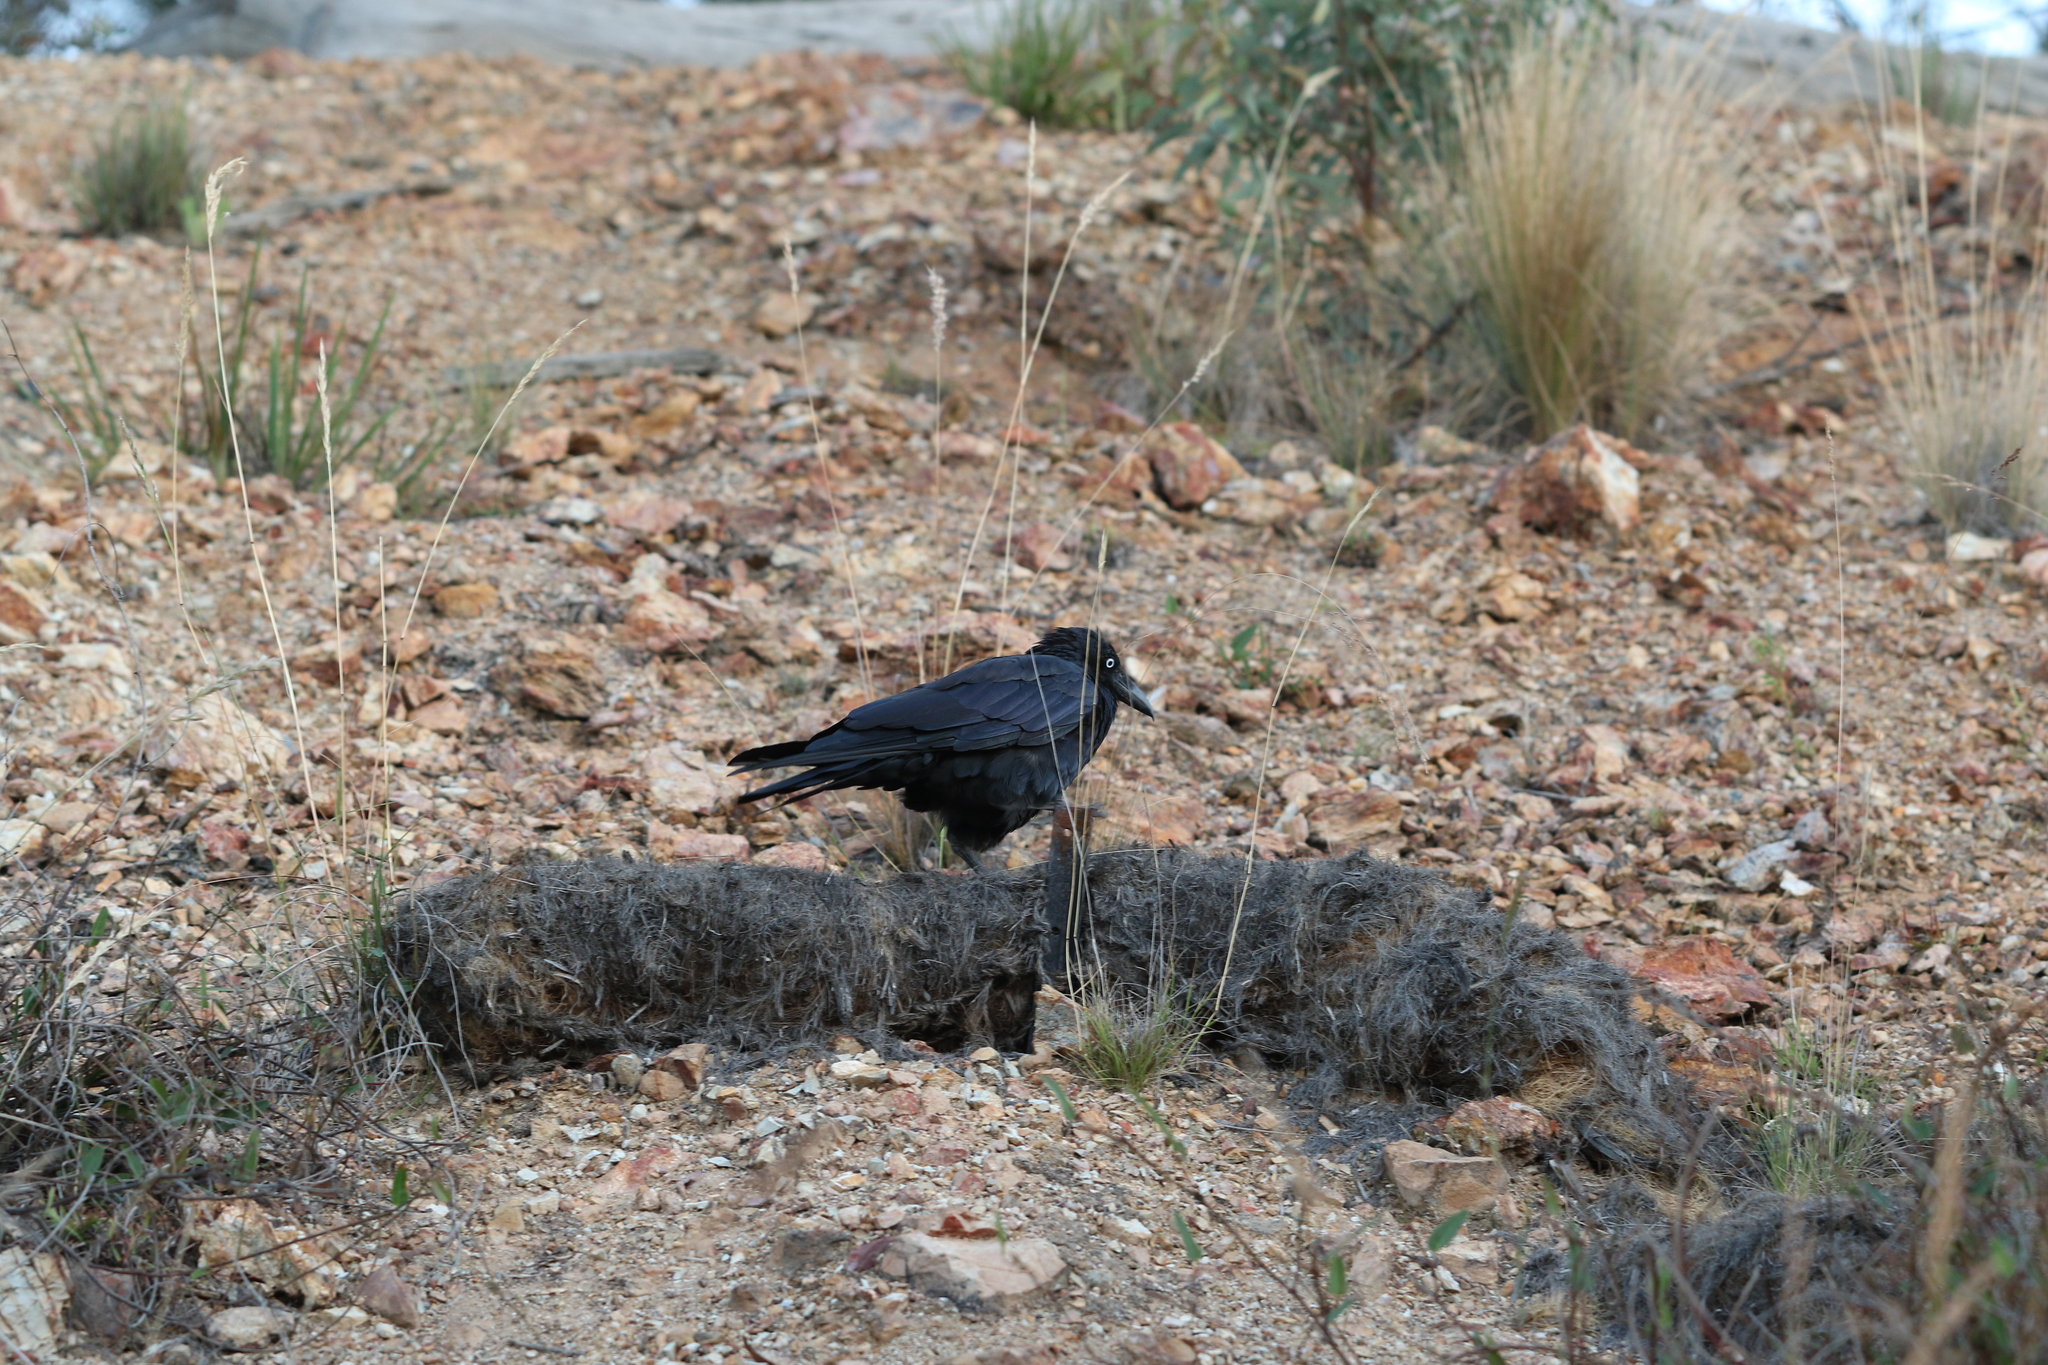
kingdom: Animalia
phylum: Chordata
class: Aves
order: Passeriformes
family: Corvidae
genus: Corvus
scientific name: Corvus coronoides
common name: Australian raven
